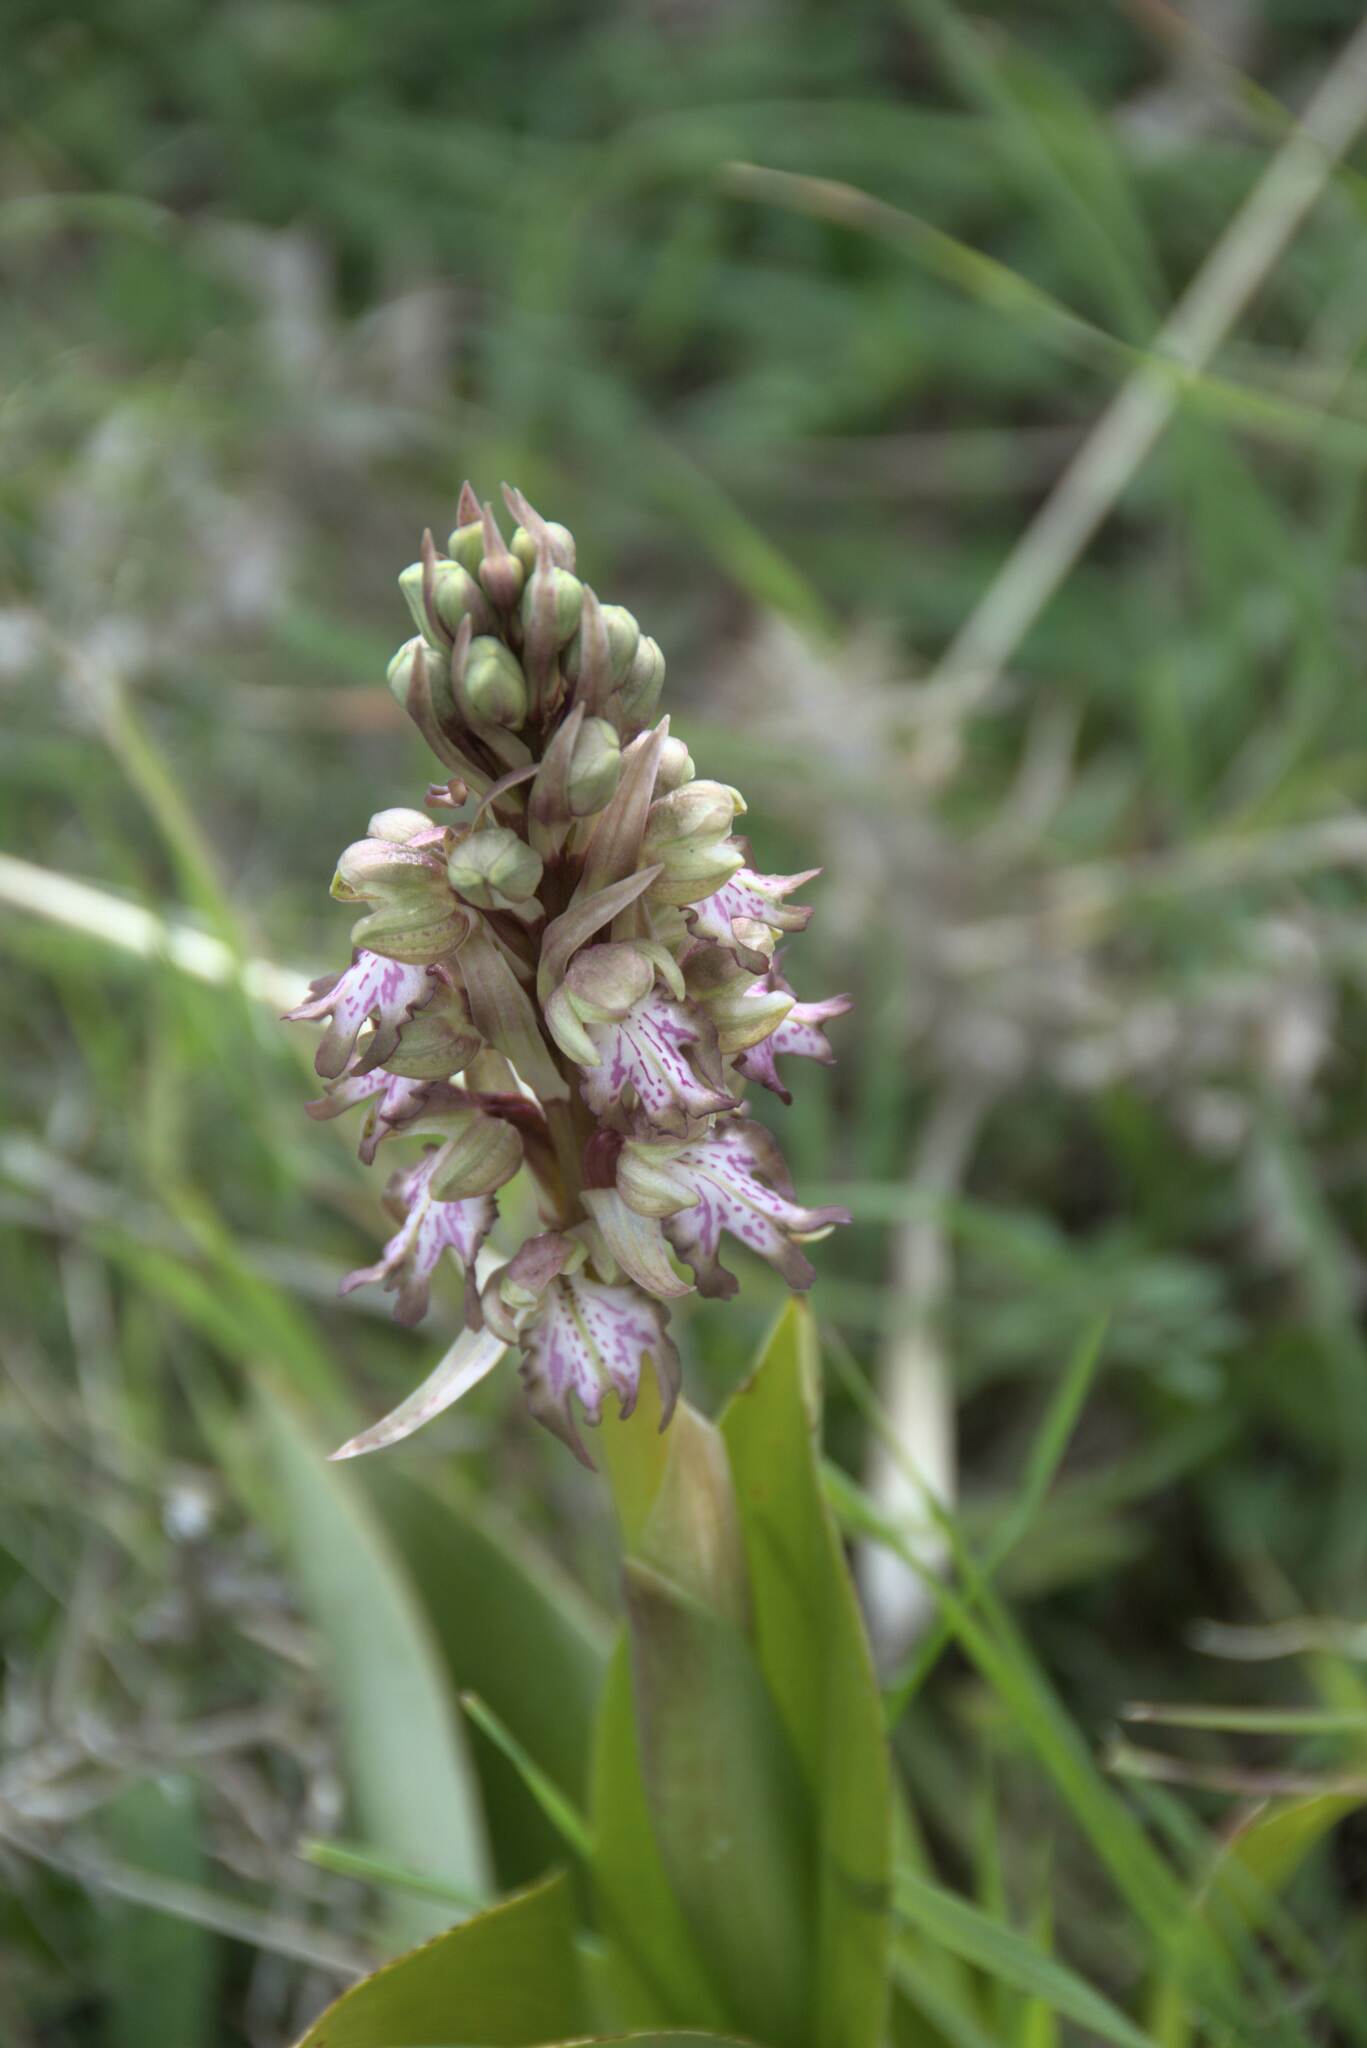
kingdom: Plantae
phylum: Tracheophyta
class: Liliopsida
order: Asparagales
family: Orchidaceae
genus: Himantoglossum
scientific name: Himantoglossum robertianum
